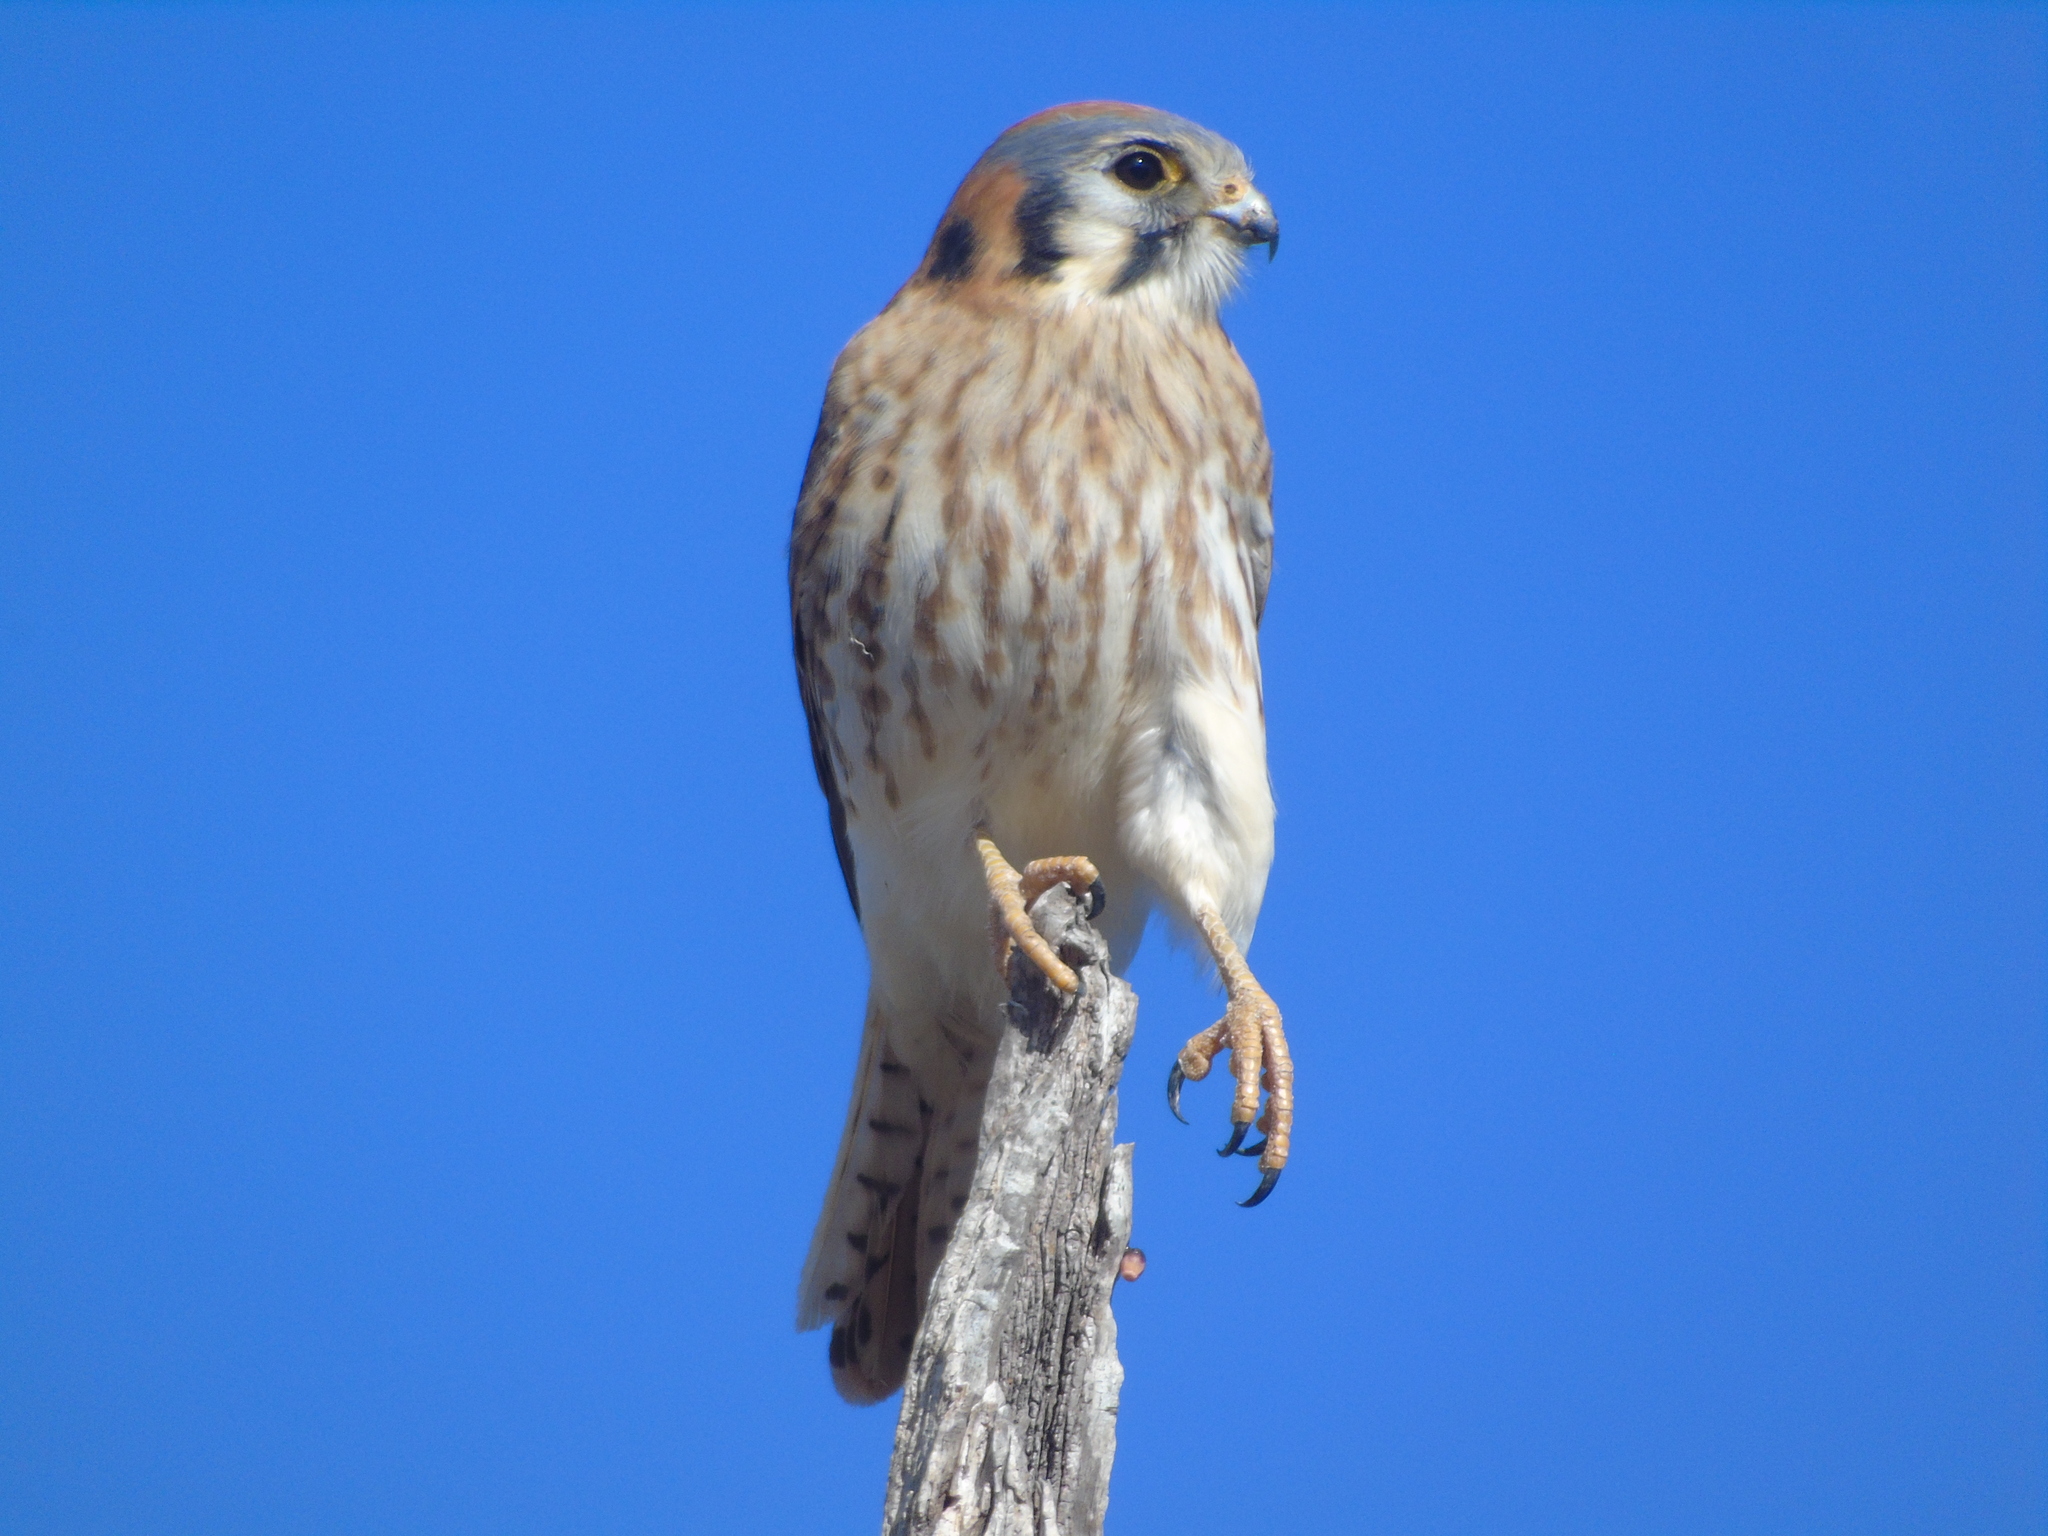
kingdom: Animalia
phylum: Chordata
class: Aves
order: Falconiformes
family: Falconidae
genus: Falco
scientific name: Falco sparverius
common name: American kestrel
